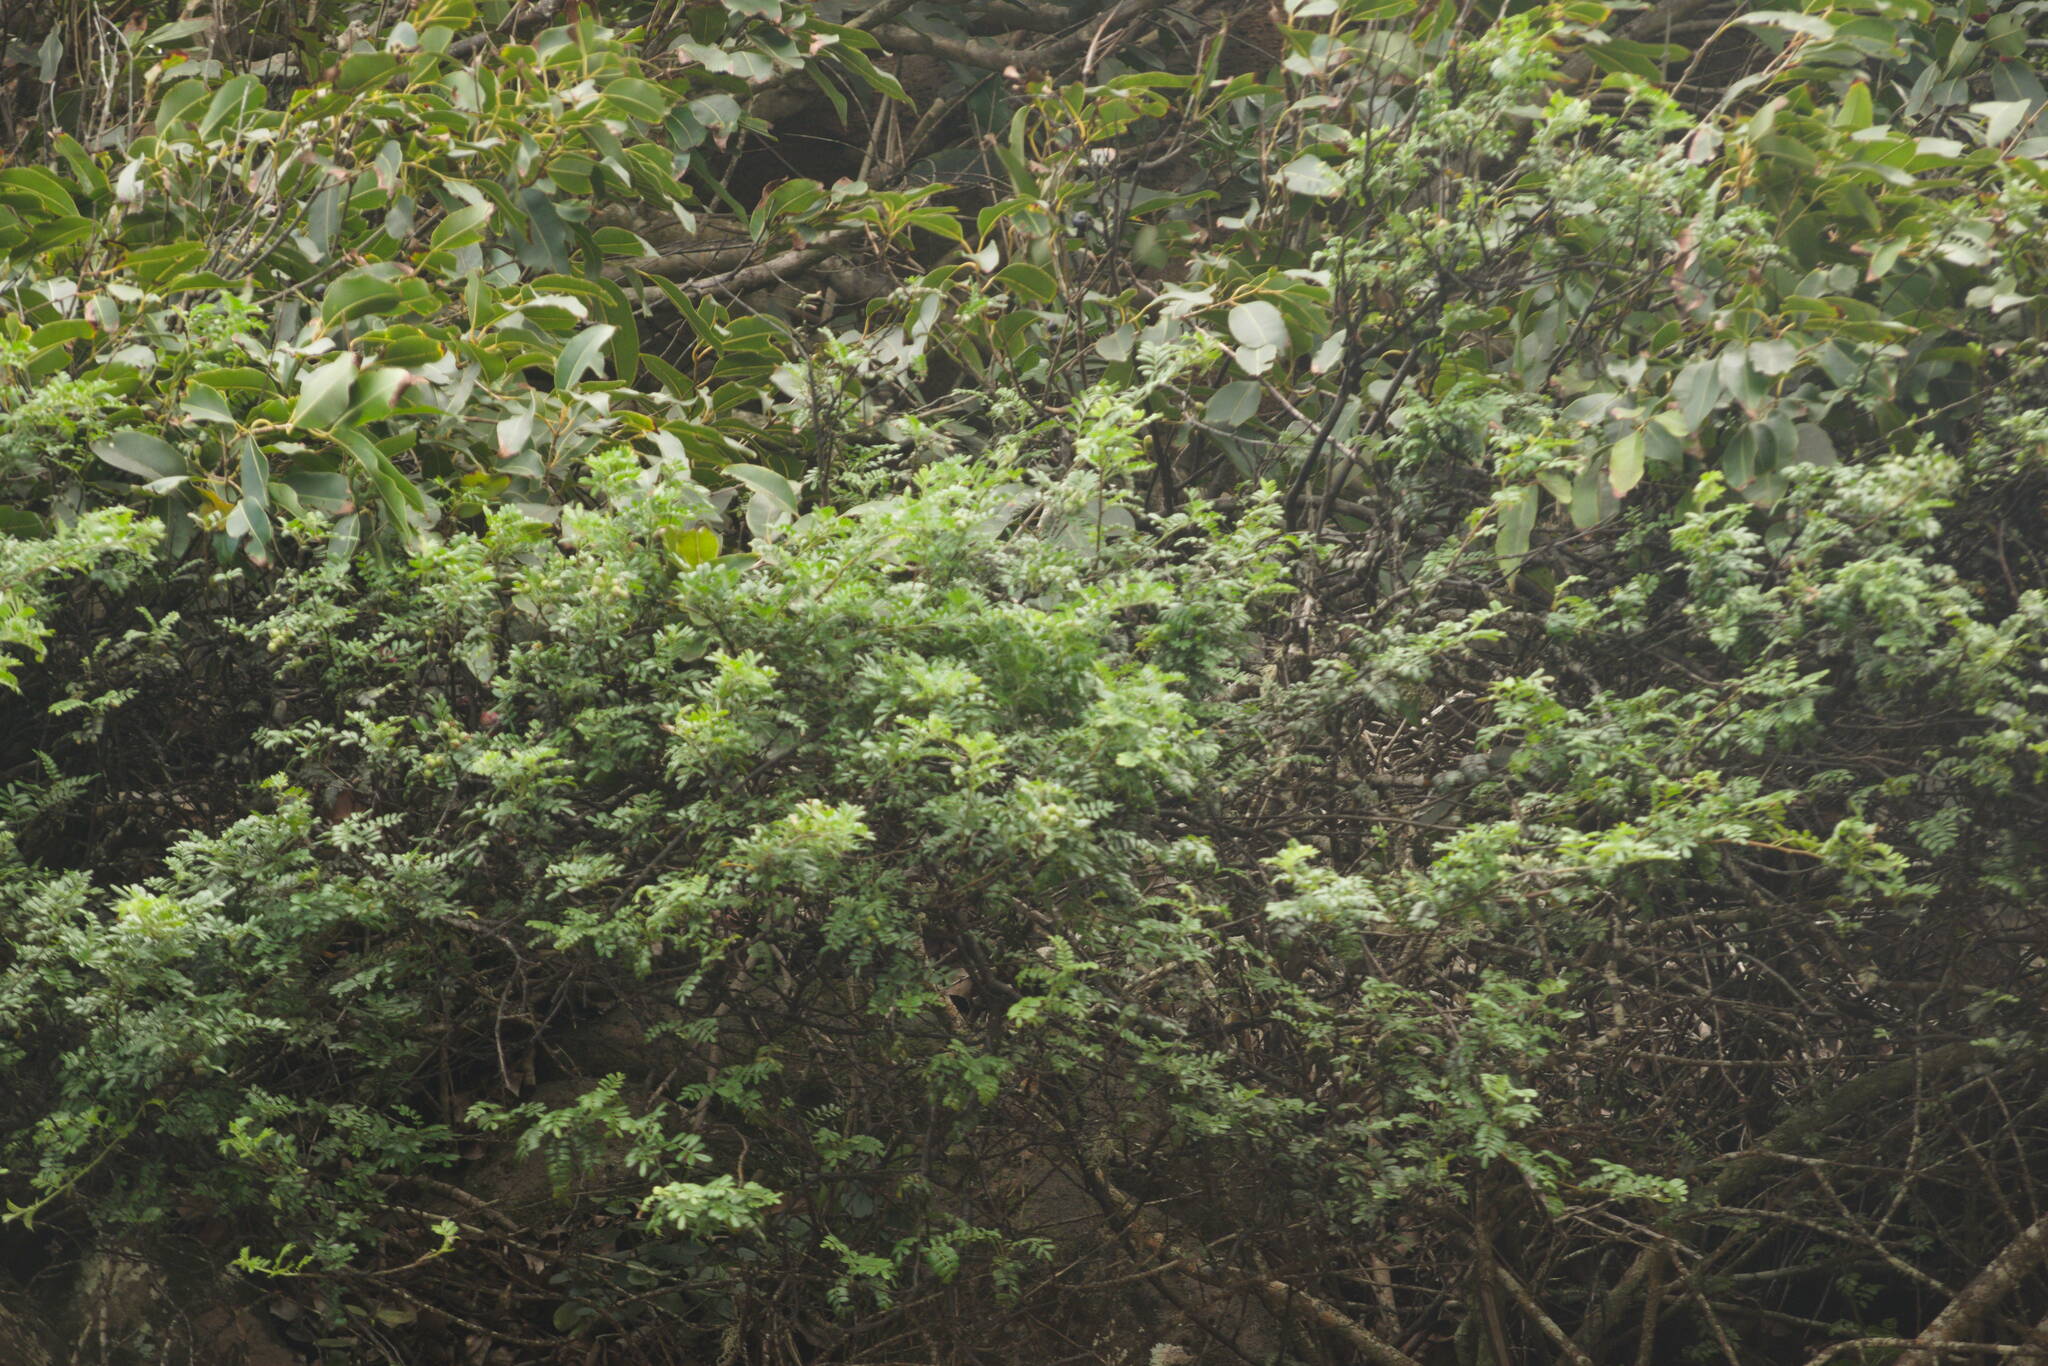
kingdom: Plantae
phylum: Tracheophyta
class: Magnoliopsida
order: Rosales
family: Rosaceae
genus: Osteomeles
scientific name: Osteomeles anthyllidifolia
